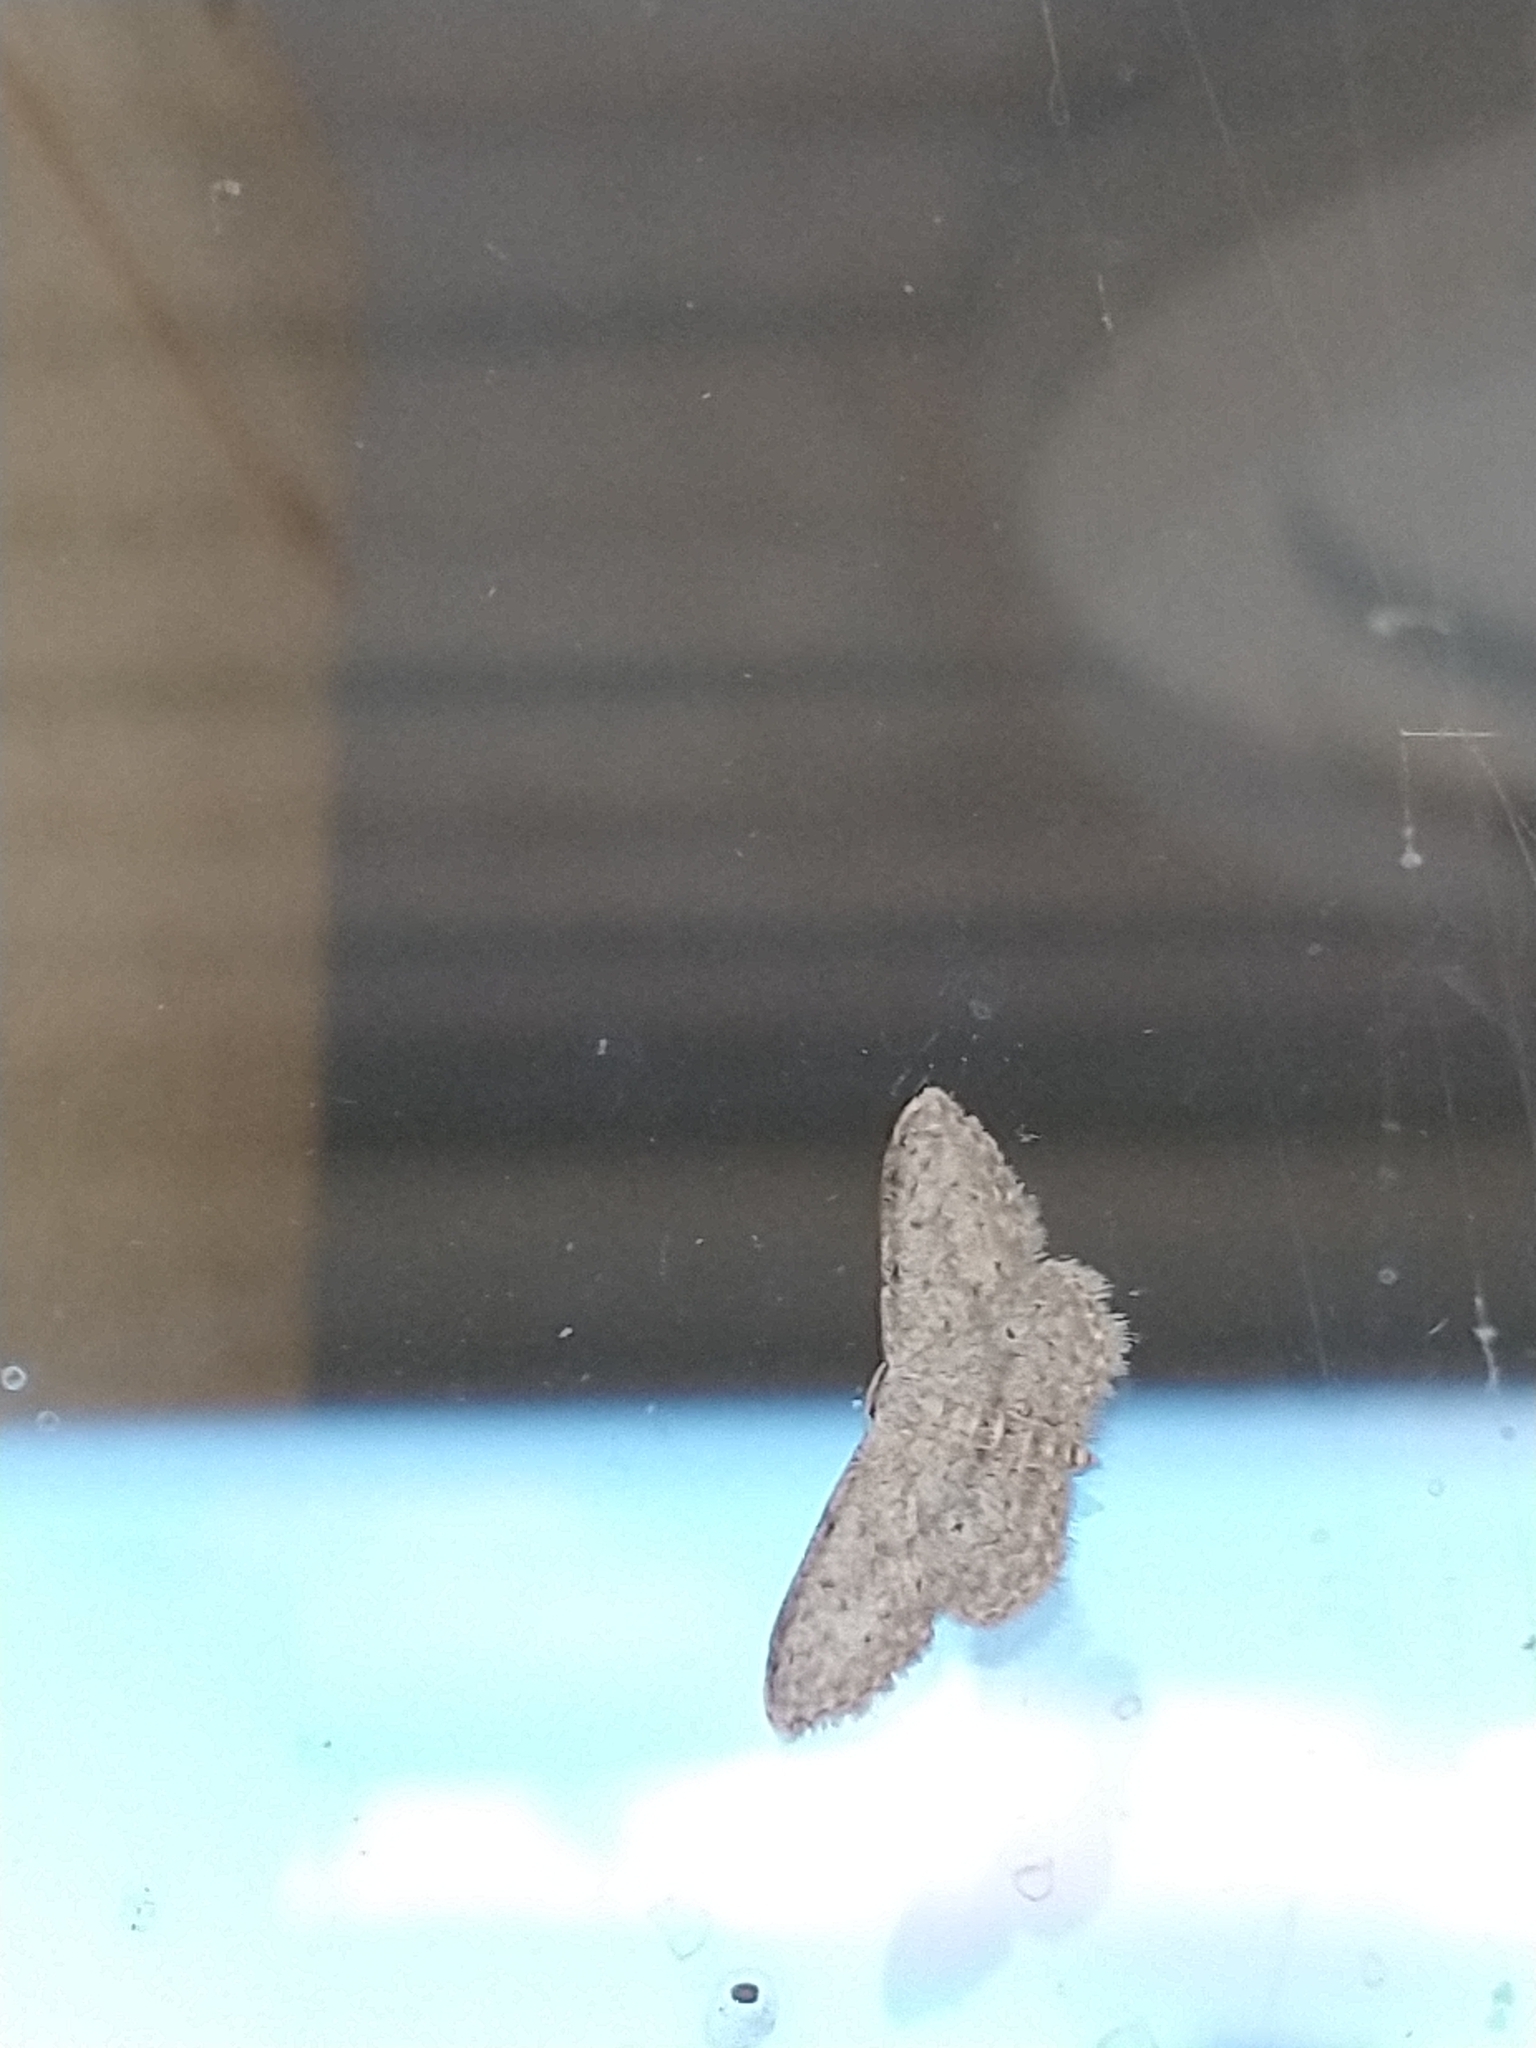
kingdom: Animalia
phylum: Arthropoda
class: Insecta
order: Lepidoptera
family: Geometridae
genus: Idaea
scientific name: Idaea seriata
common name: Small dusty wave
